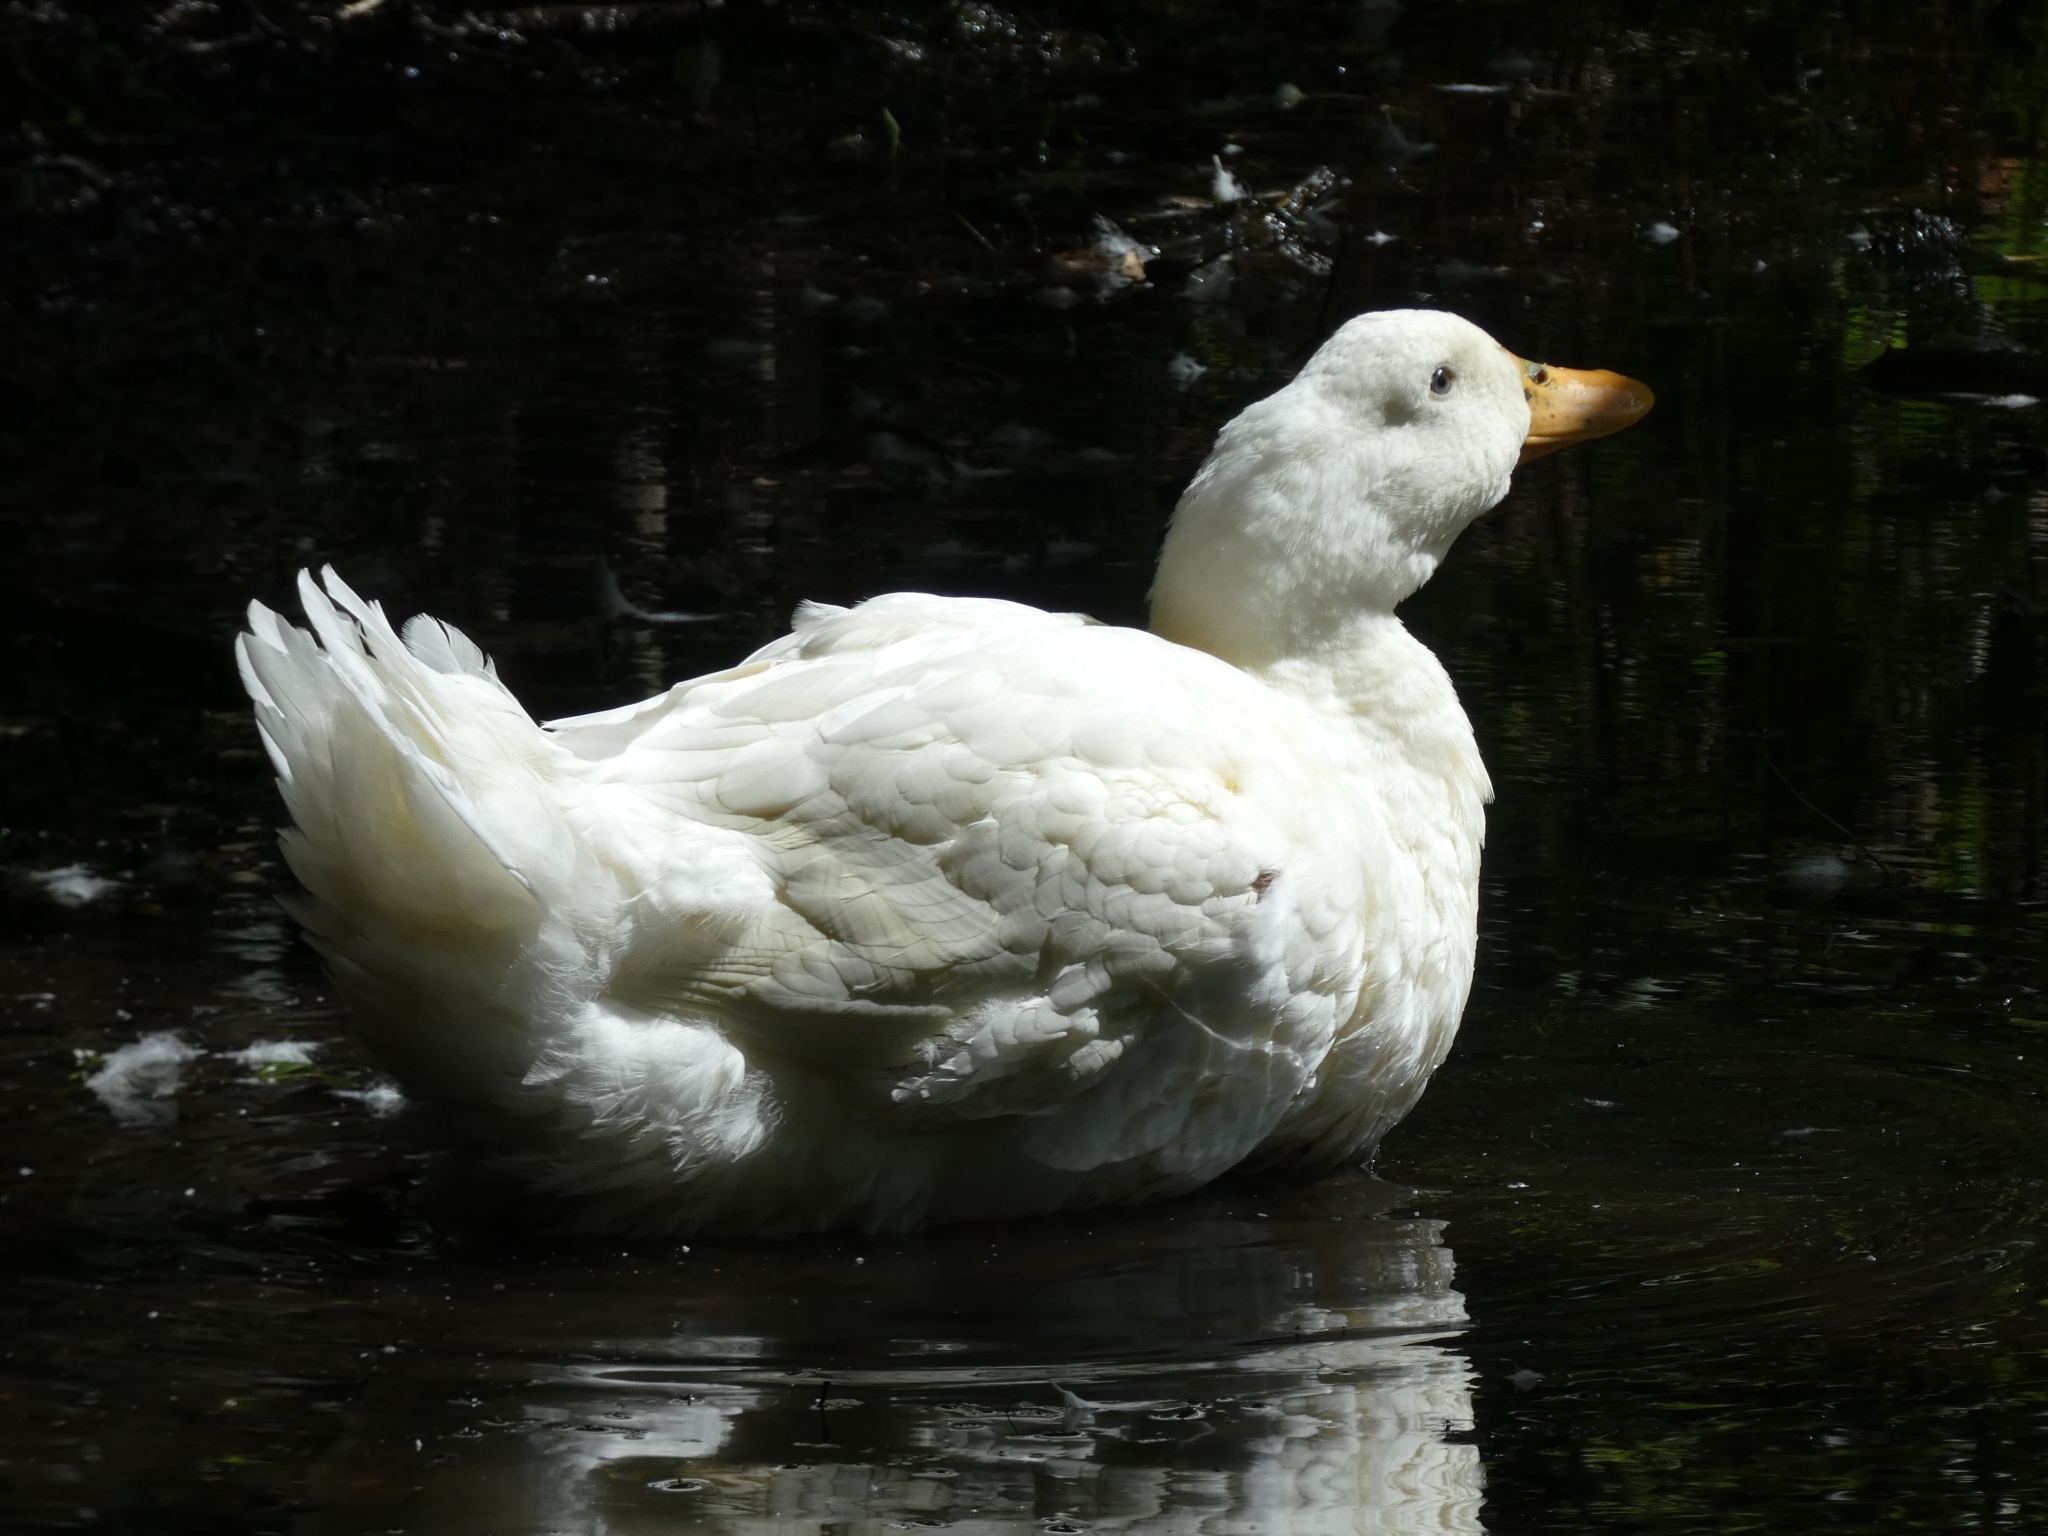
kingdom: Animalia
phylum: Chordata
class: Aves
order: Anseriformes
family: Anatidae
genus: Anas
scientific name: Anas platyrhynchos
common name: Mallard
